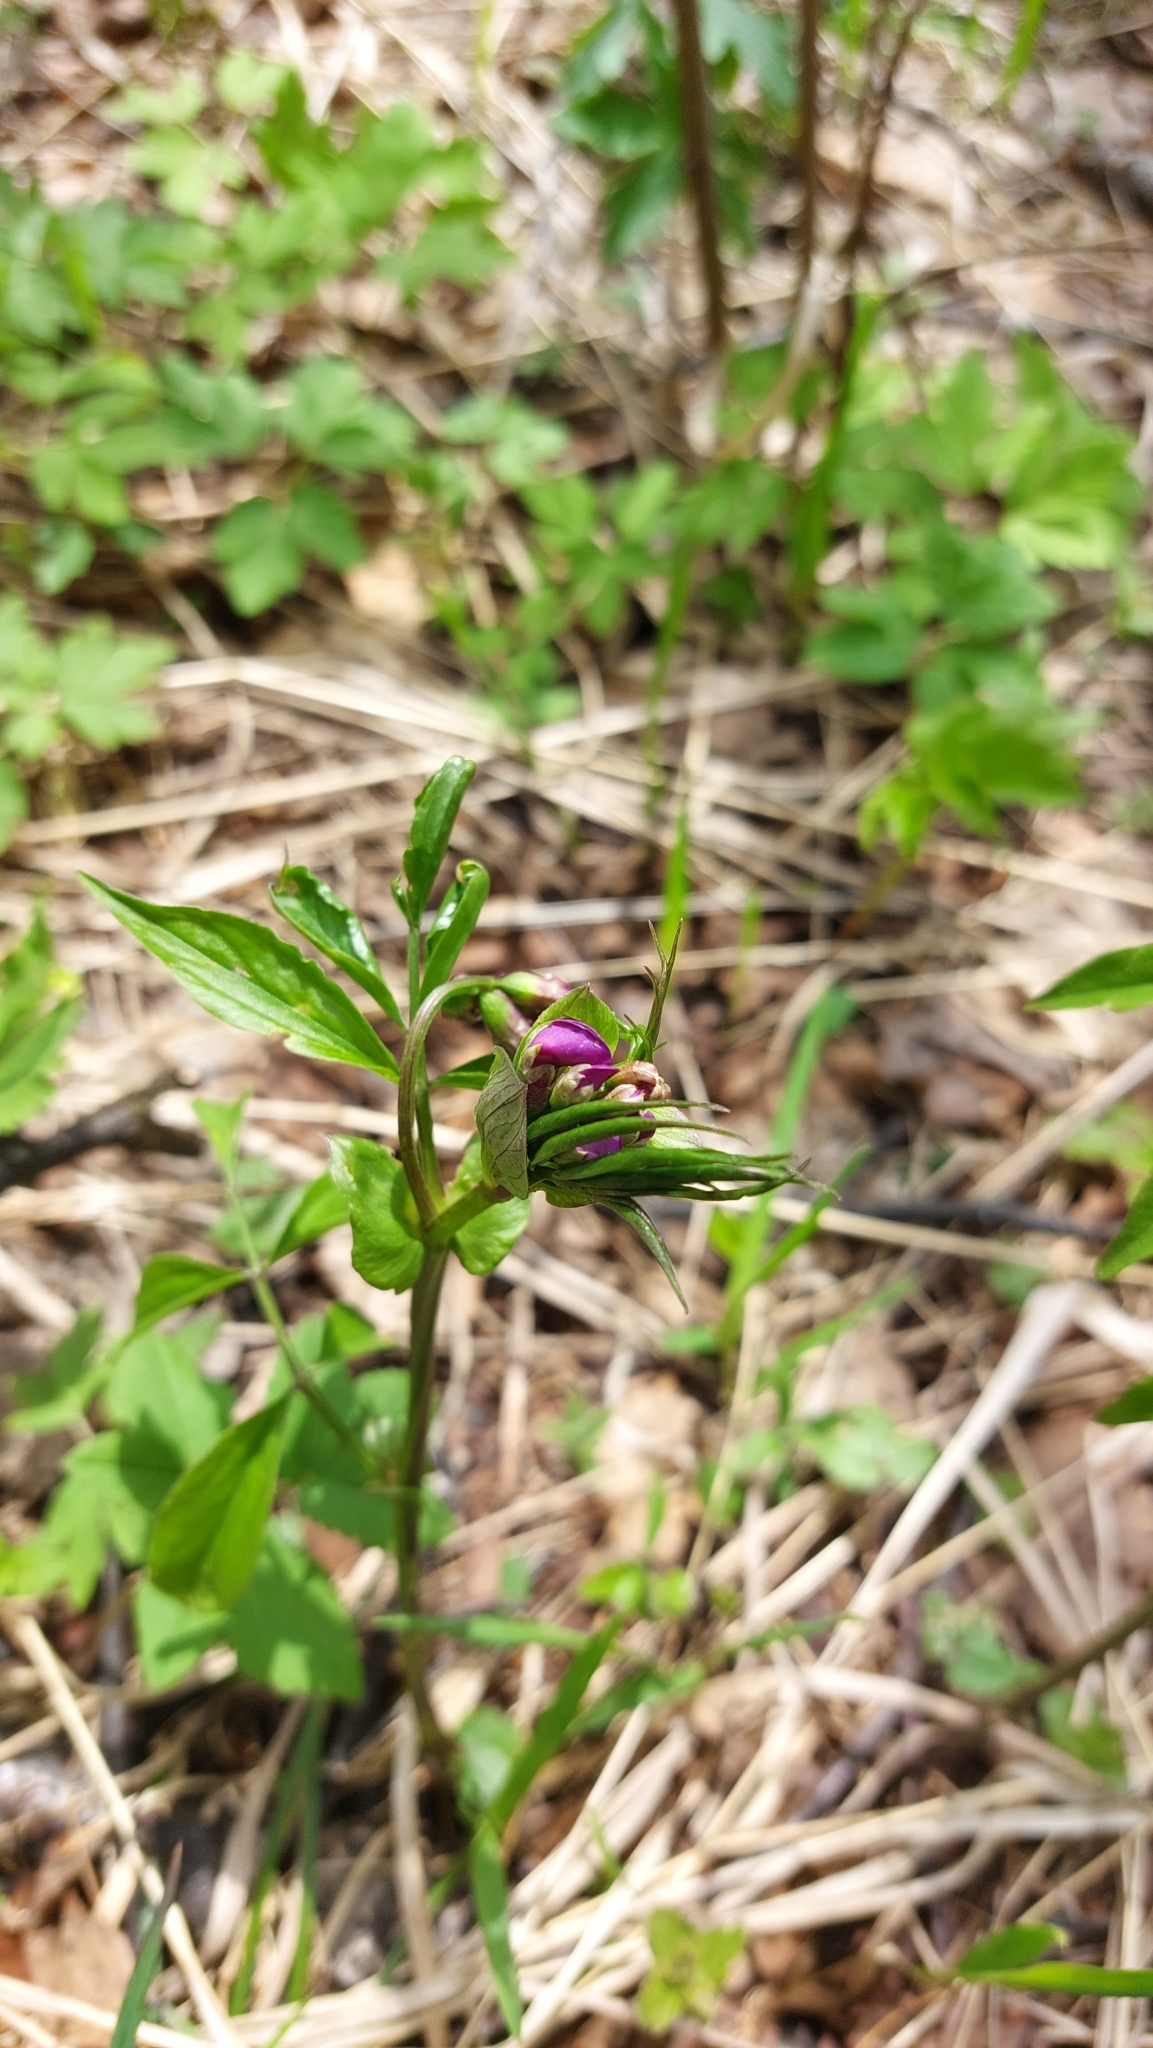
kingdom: Plantae
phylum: Tracheophyta
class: Magnoliopsida
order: Fabales
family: Fabaceae
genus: Lathyrus
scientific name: Lathyrus vernus
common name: Spring pea
